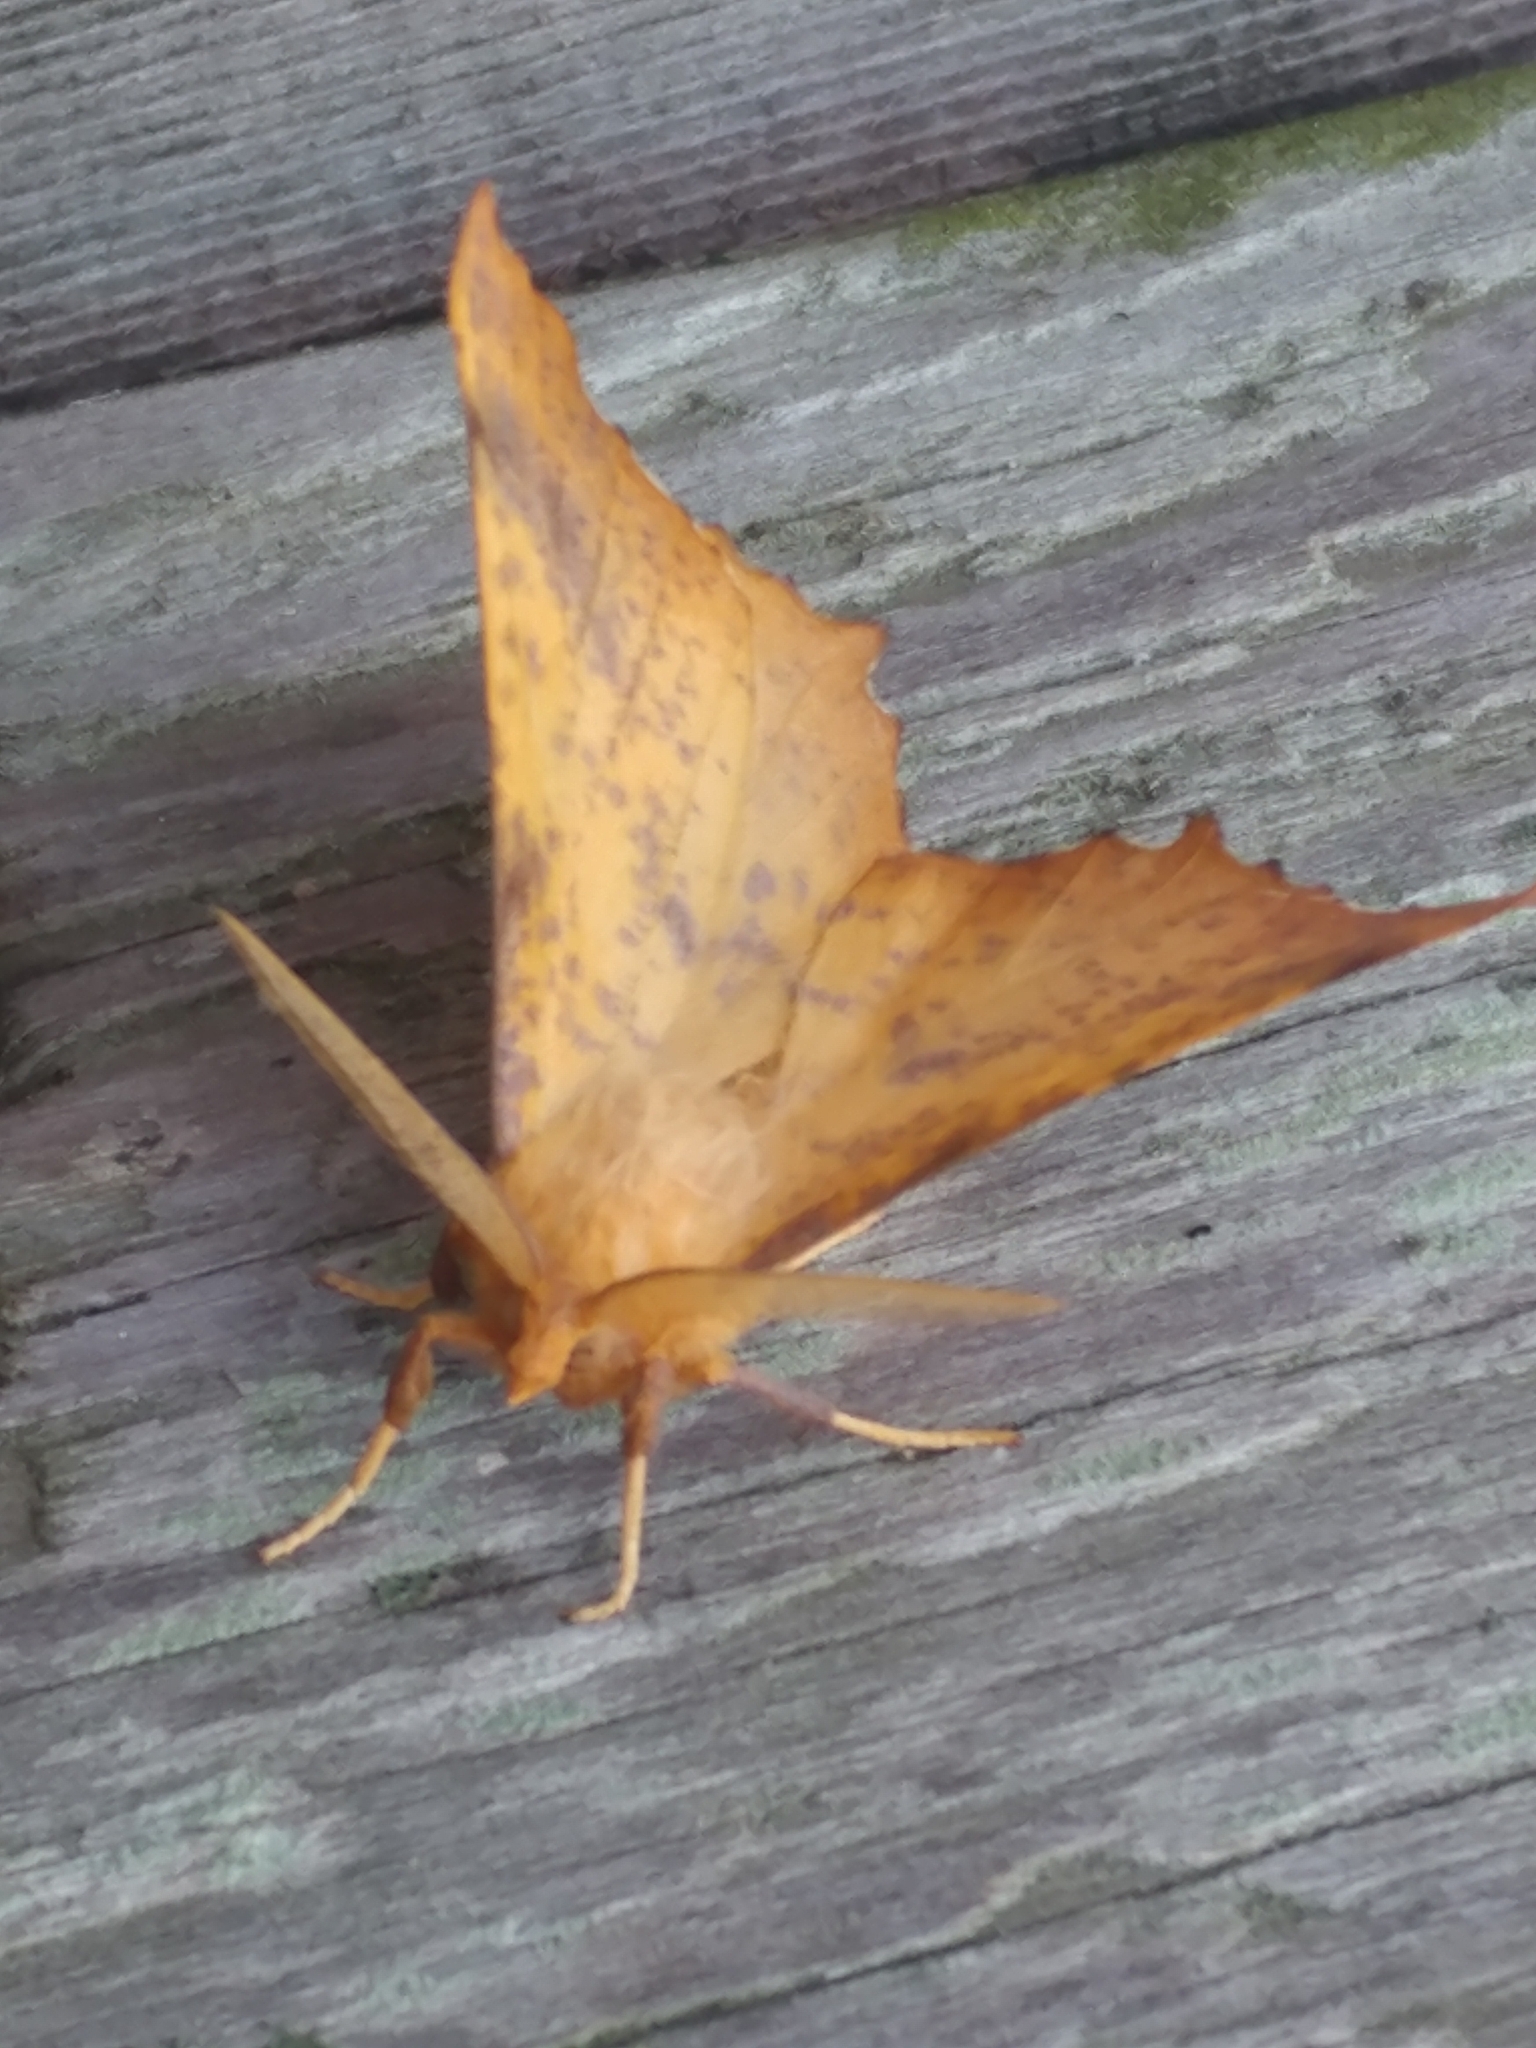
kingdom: Animalia
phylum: Arthropoda
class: Insecta
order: Lepidoptera
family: Geometridae
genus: Ennomos
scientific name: Ennomos magnaria
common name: Maple spanworm
